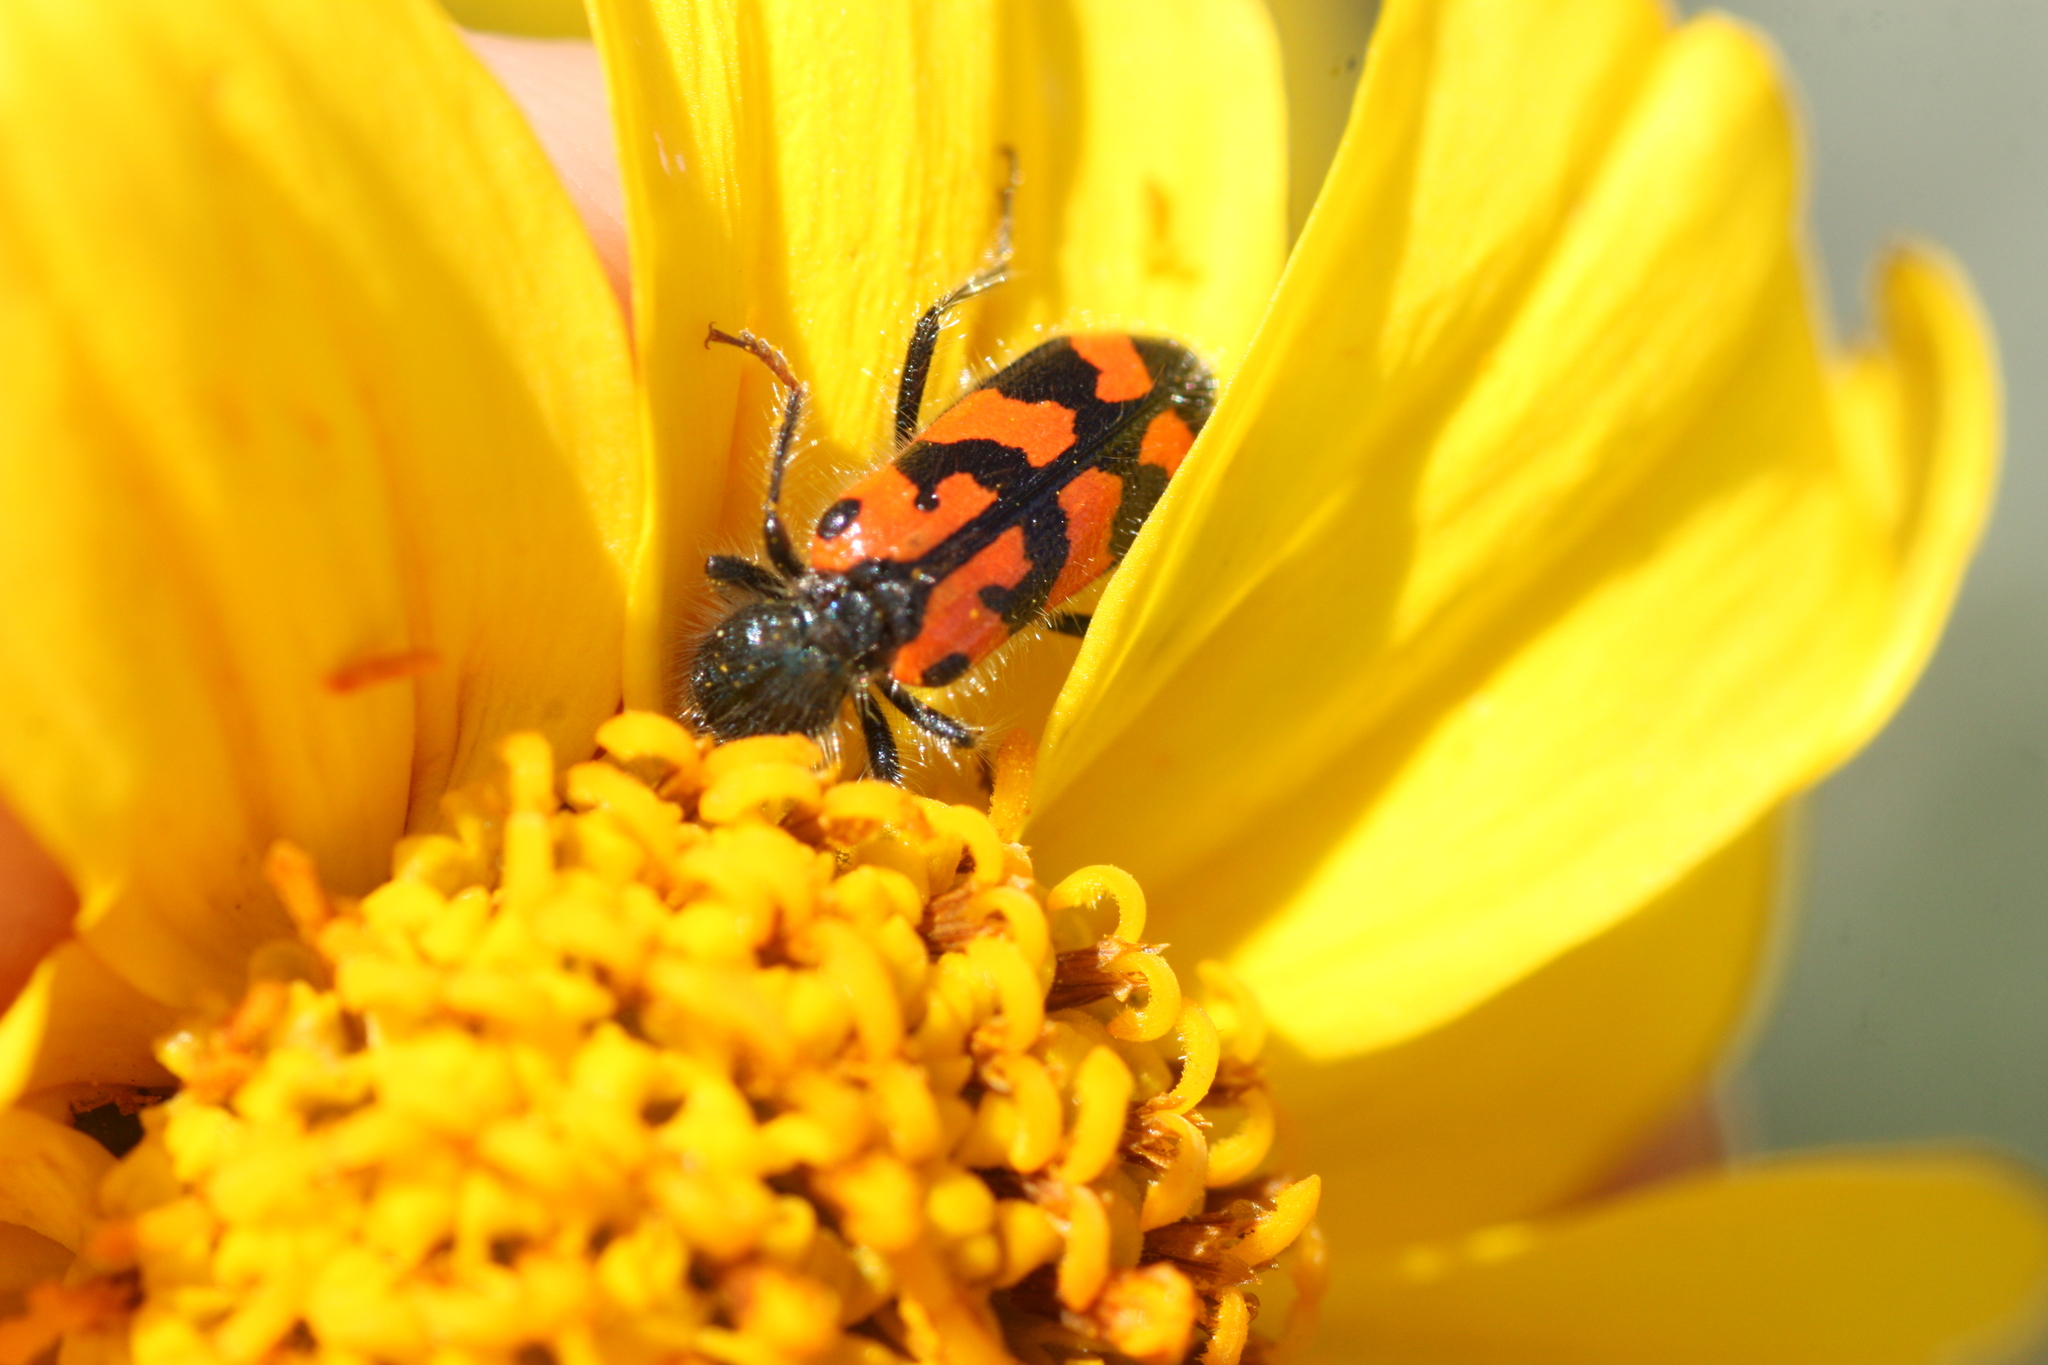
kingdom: Animalia
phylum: Arthropoda
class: Insecta
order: Coleoptera
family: Cleridae
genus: Trichodes
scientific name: Trichodes ornatus
